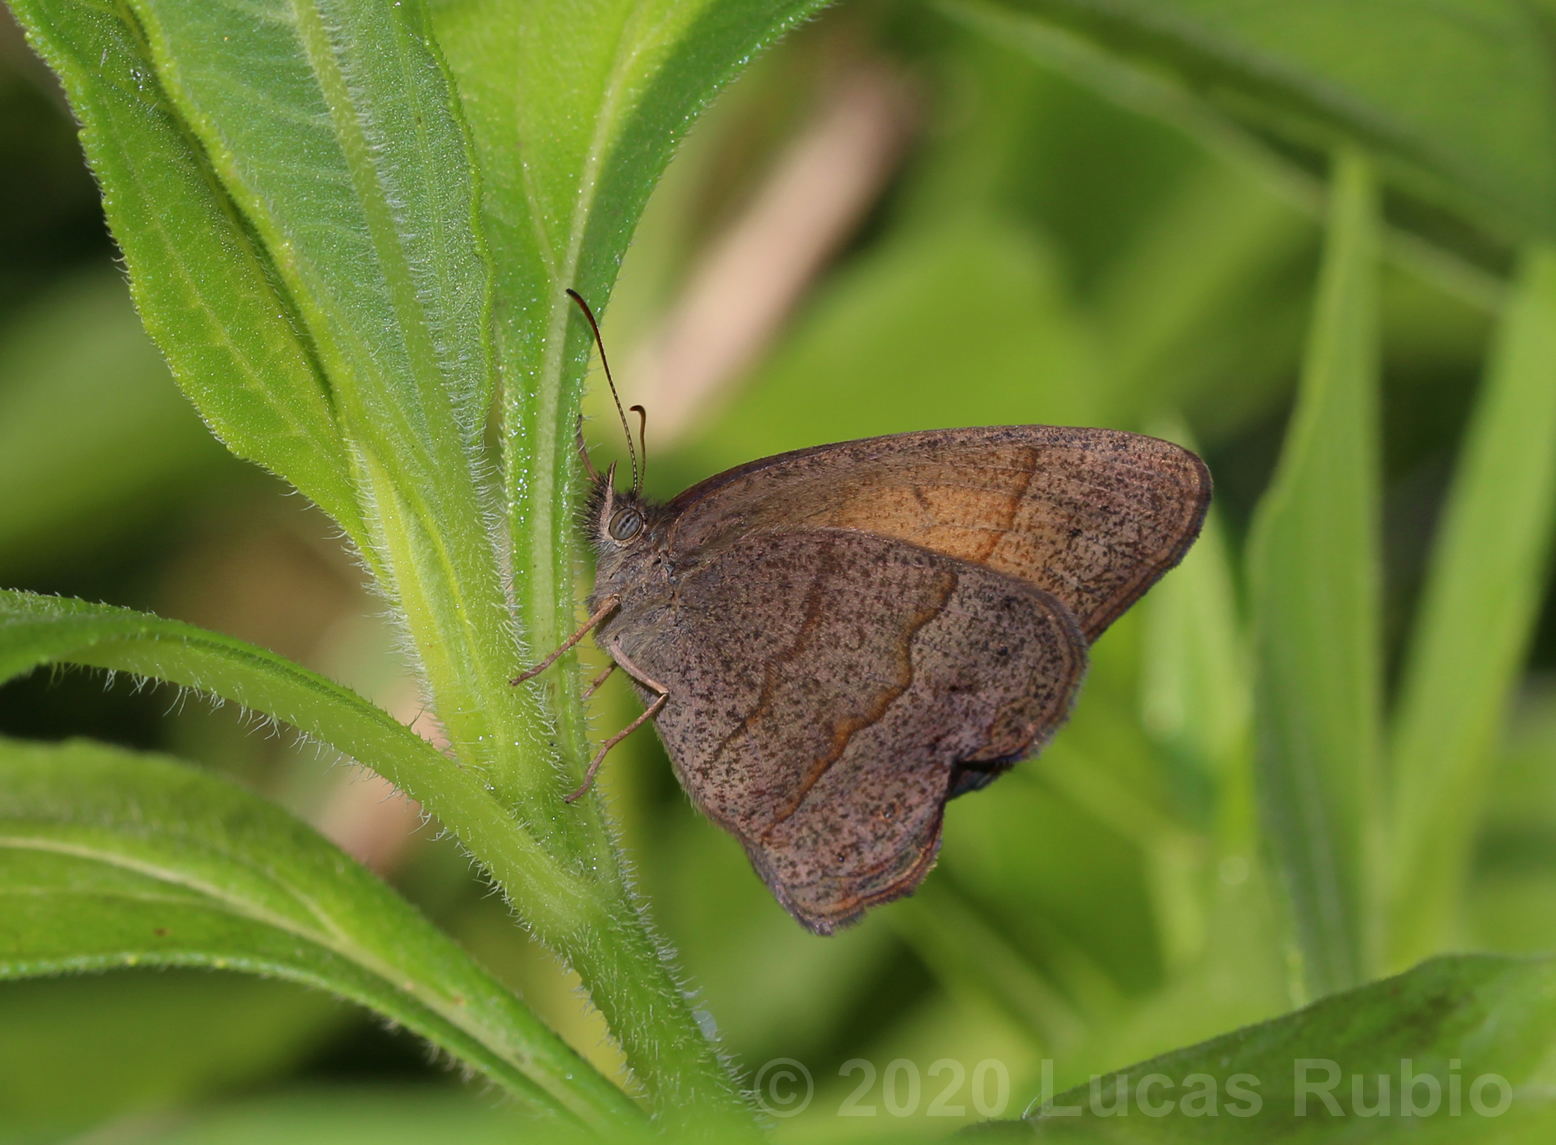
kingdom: Animalia
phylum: Arthropoda
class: Insecta
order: Lepidoptera
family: Nymphalidae
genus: Yphthimoides
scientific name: Yphthimoides celmis
